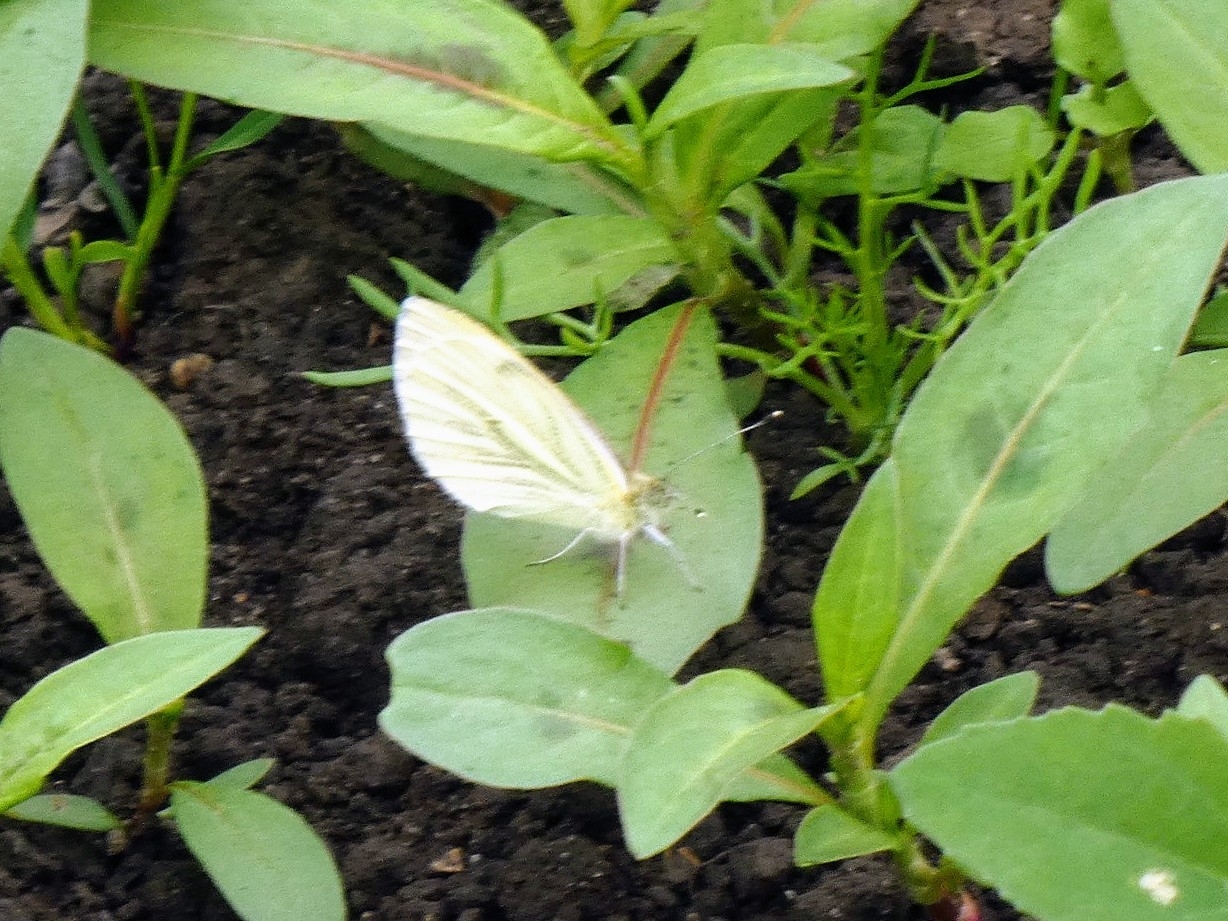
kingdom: Animalia
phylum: Arthropoda
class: Insecta
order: Lepidoptera
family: Pieridae
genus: Pieris
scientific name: Pieris napi
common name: Green-veined white
